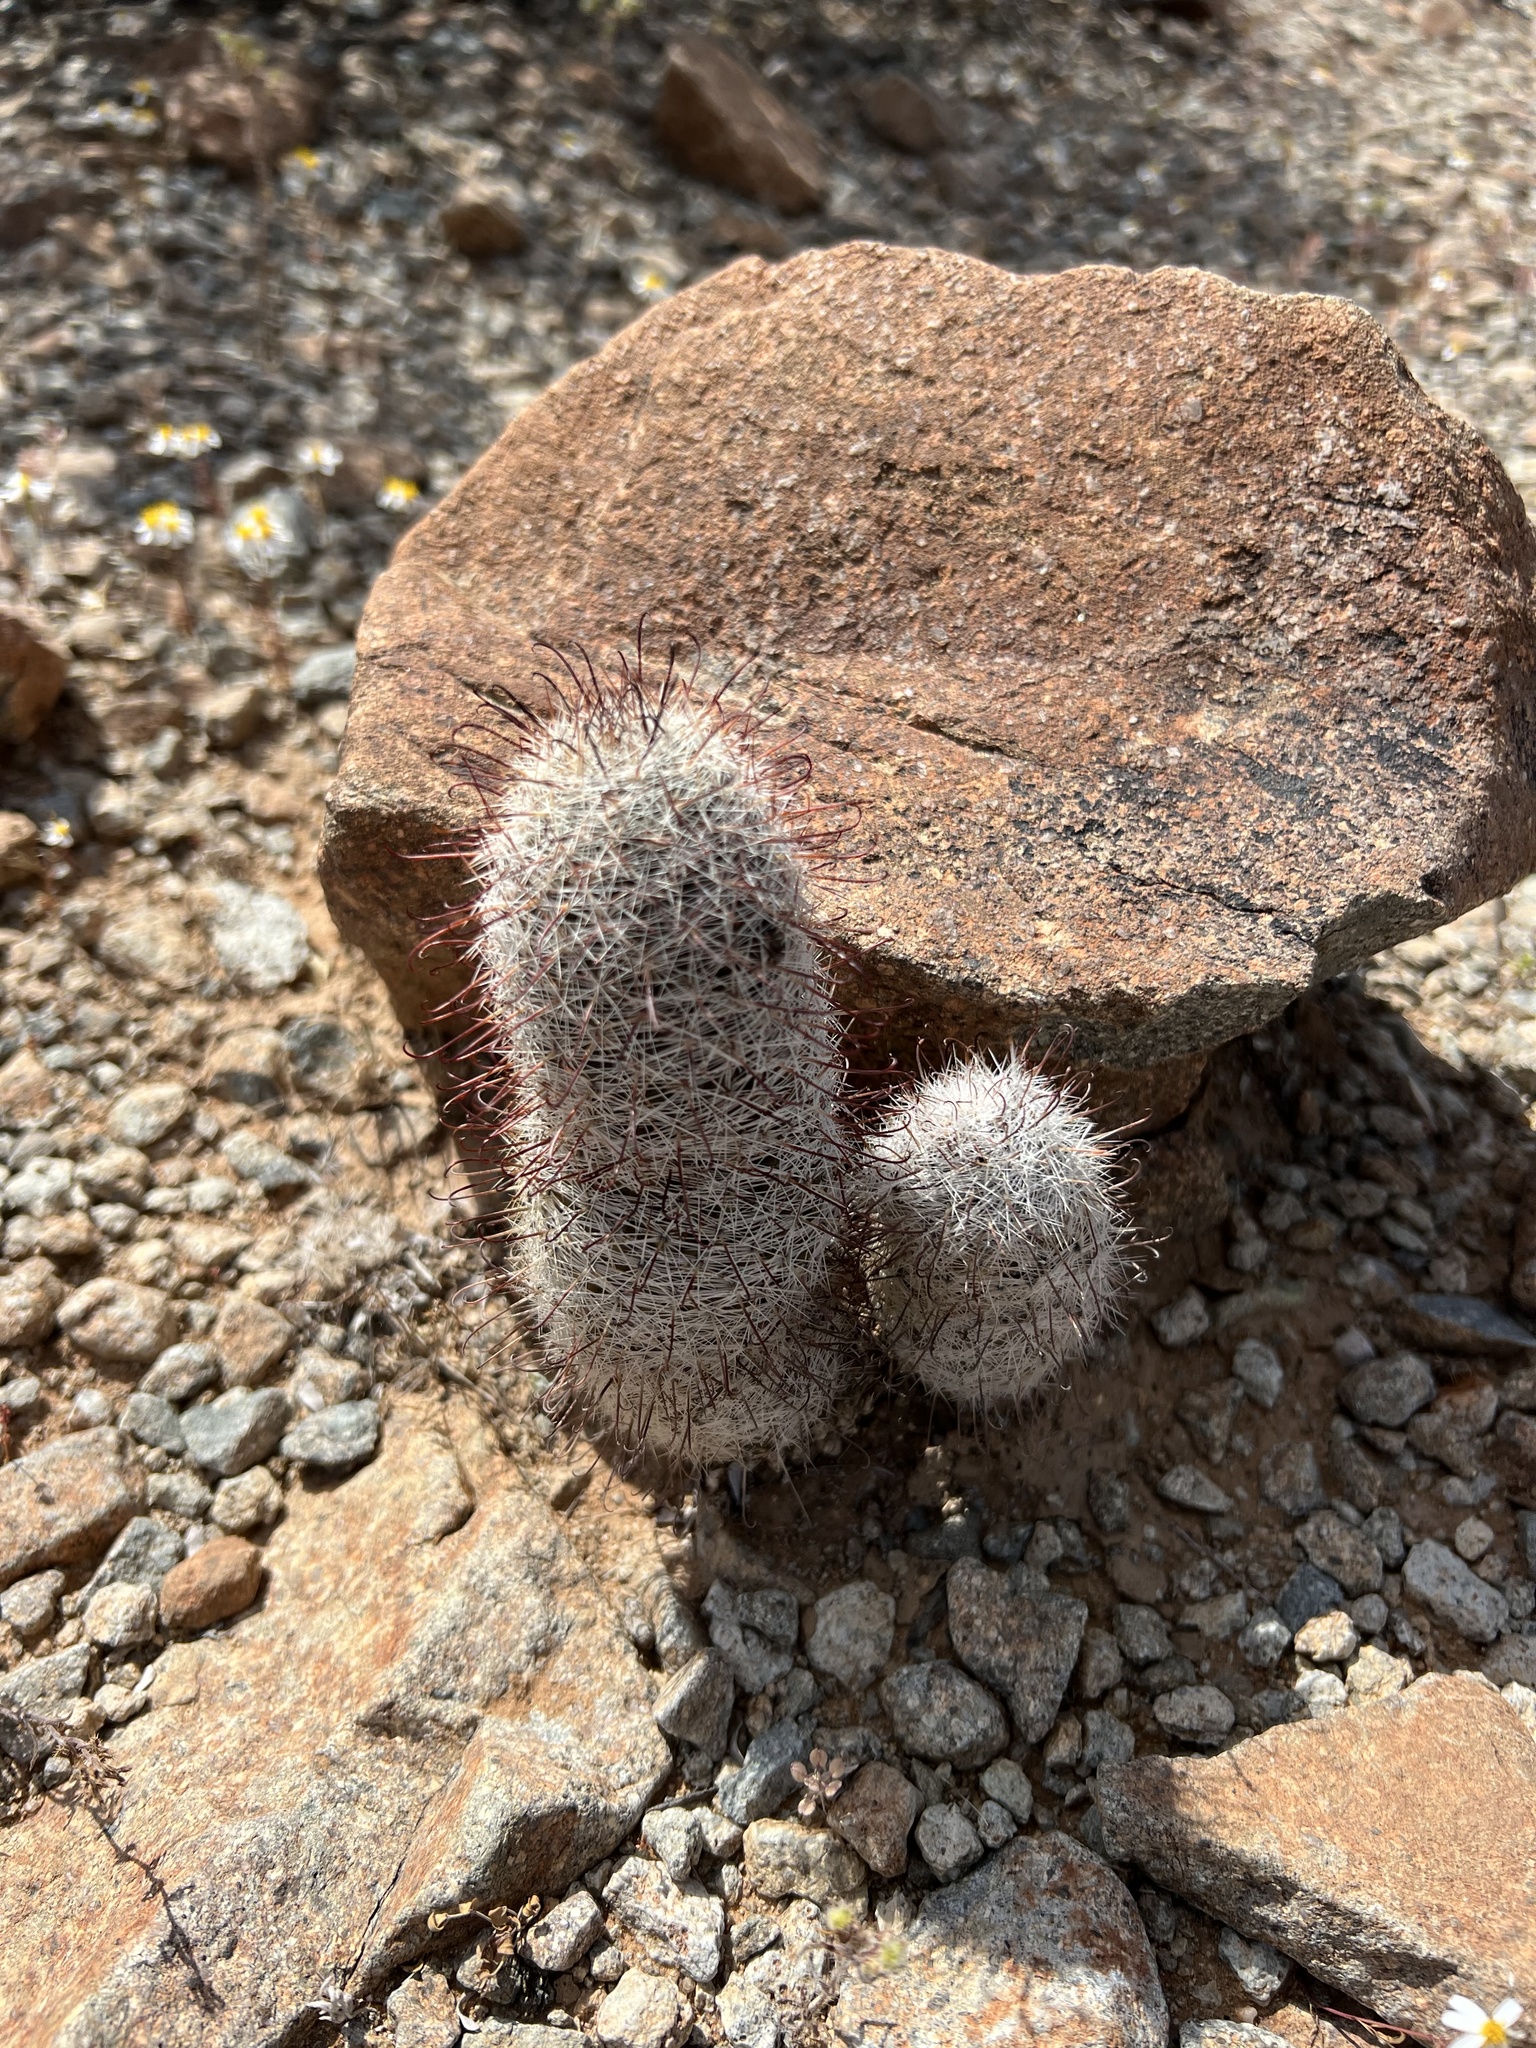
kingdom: Plantae
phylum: Tracheophyta
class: Magnoliopsida
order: Caryophyllales
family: Cactaceae
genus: Cochemiea
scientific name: Cochemiea grahamii
